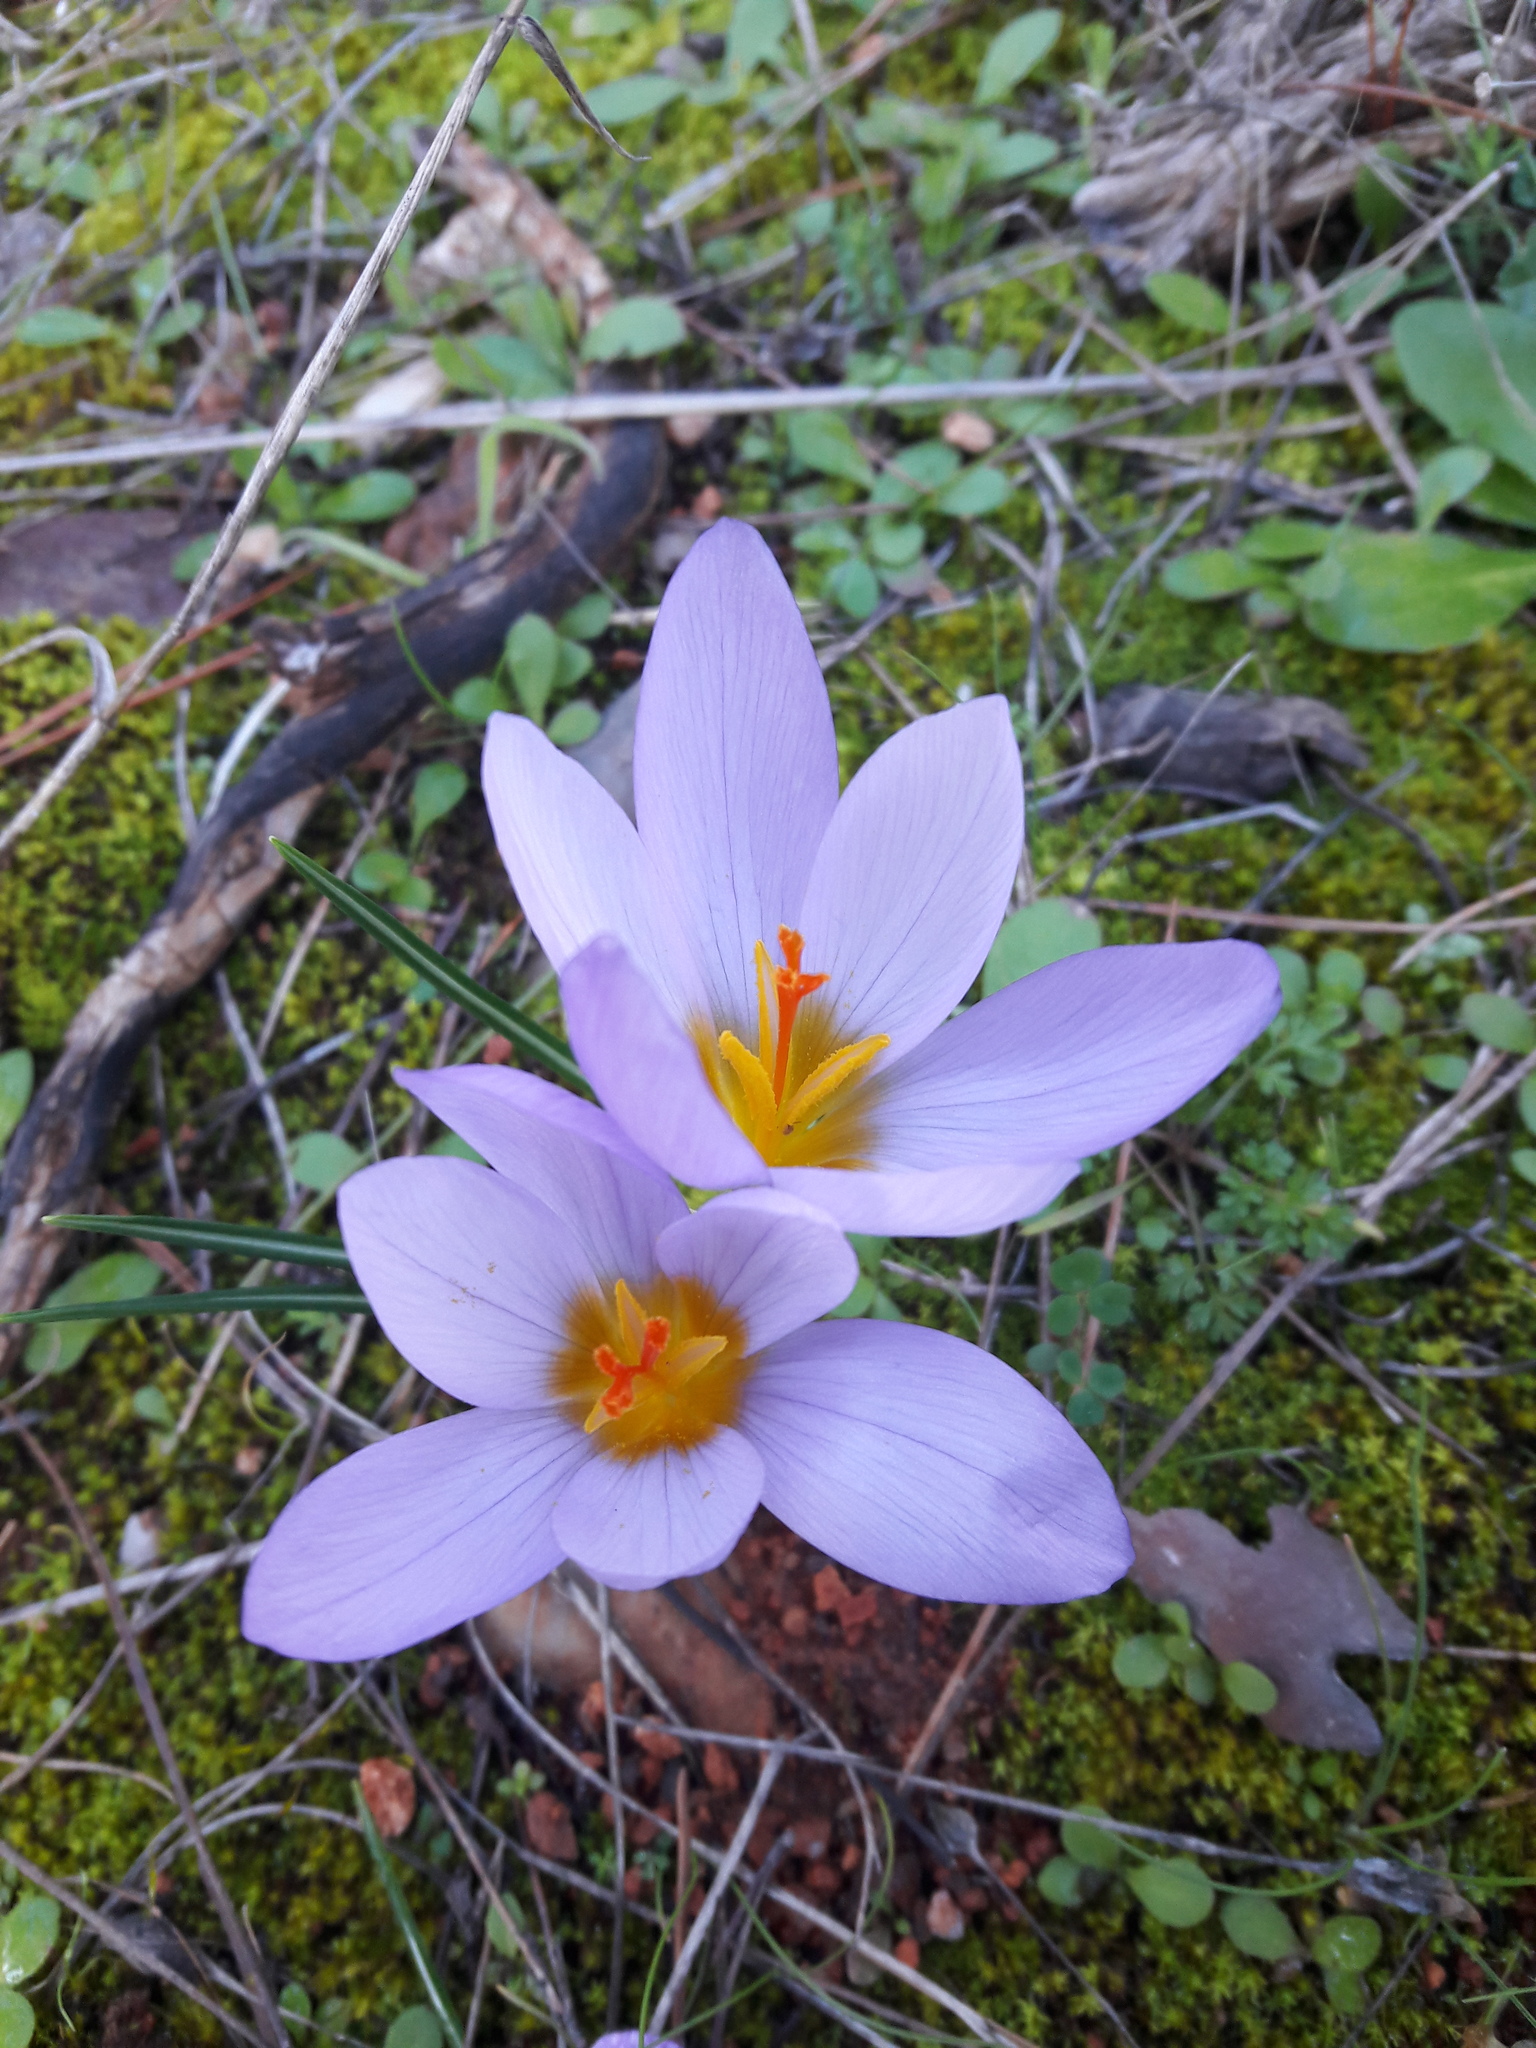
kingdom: Plantae
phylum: Tracheophyta
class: Liliopsida
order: Asparagales
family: Iridaceae
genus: Crocus
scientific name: Crocus nivalis
